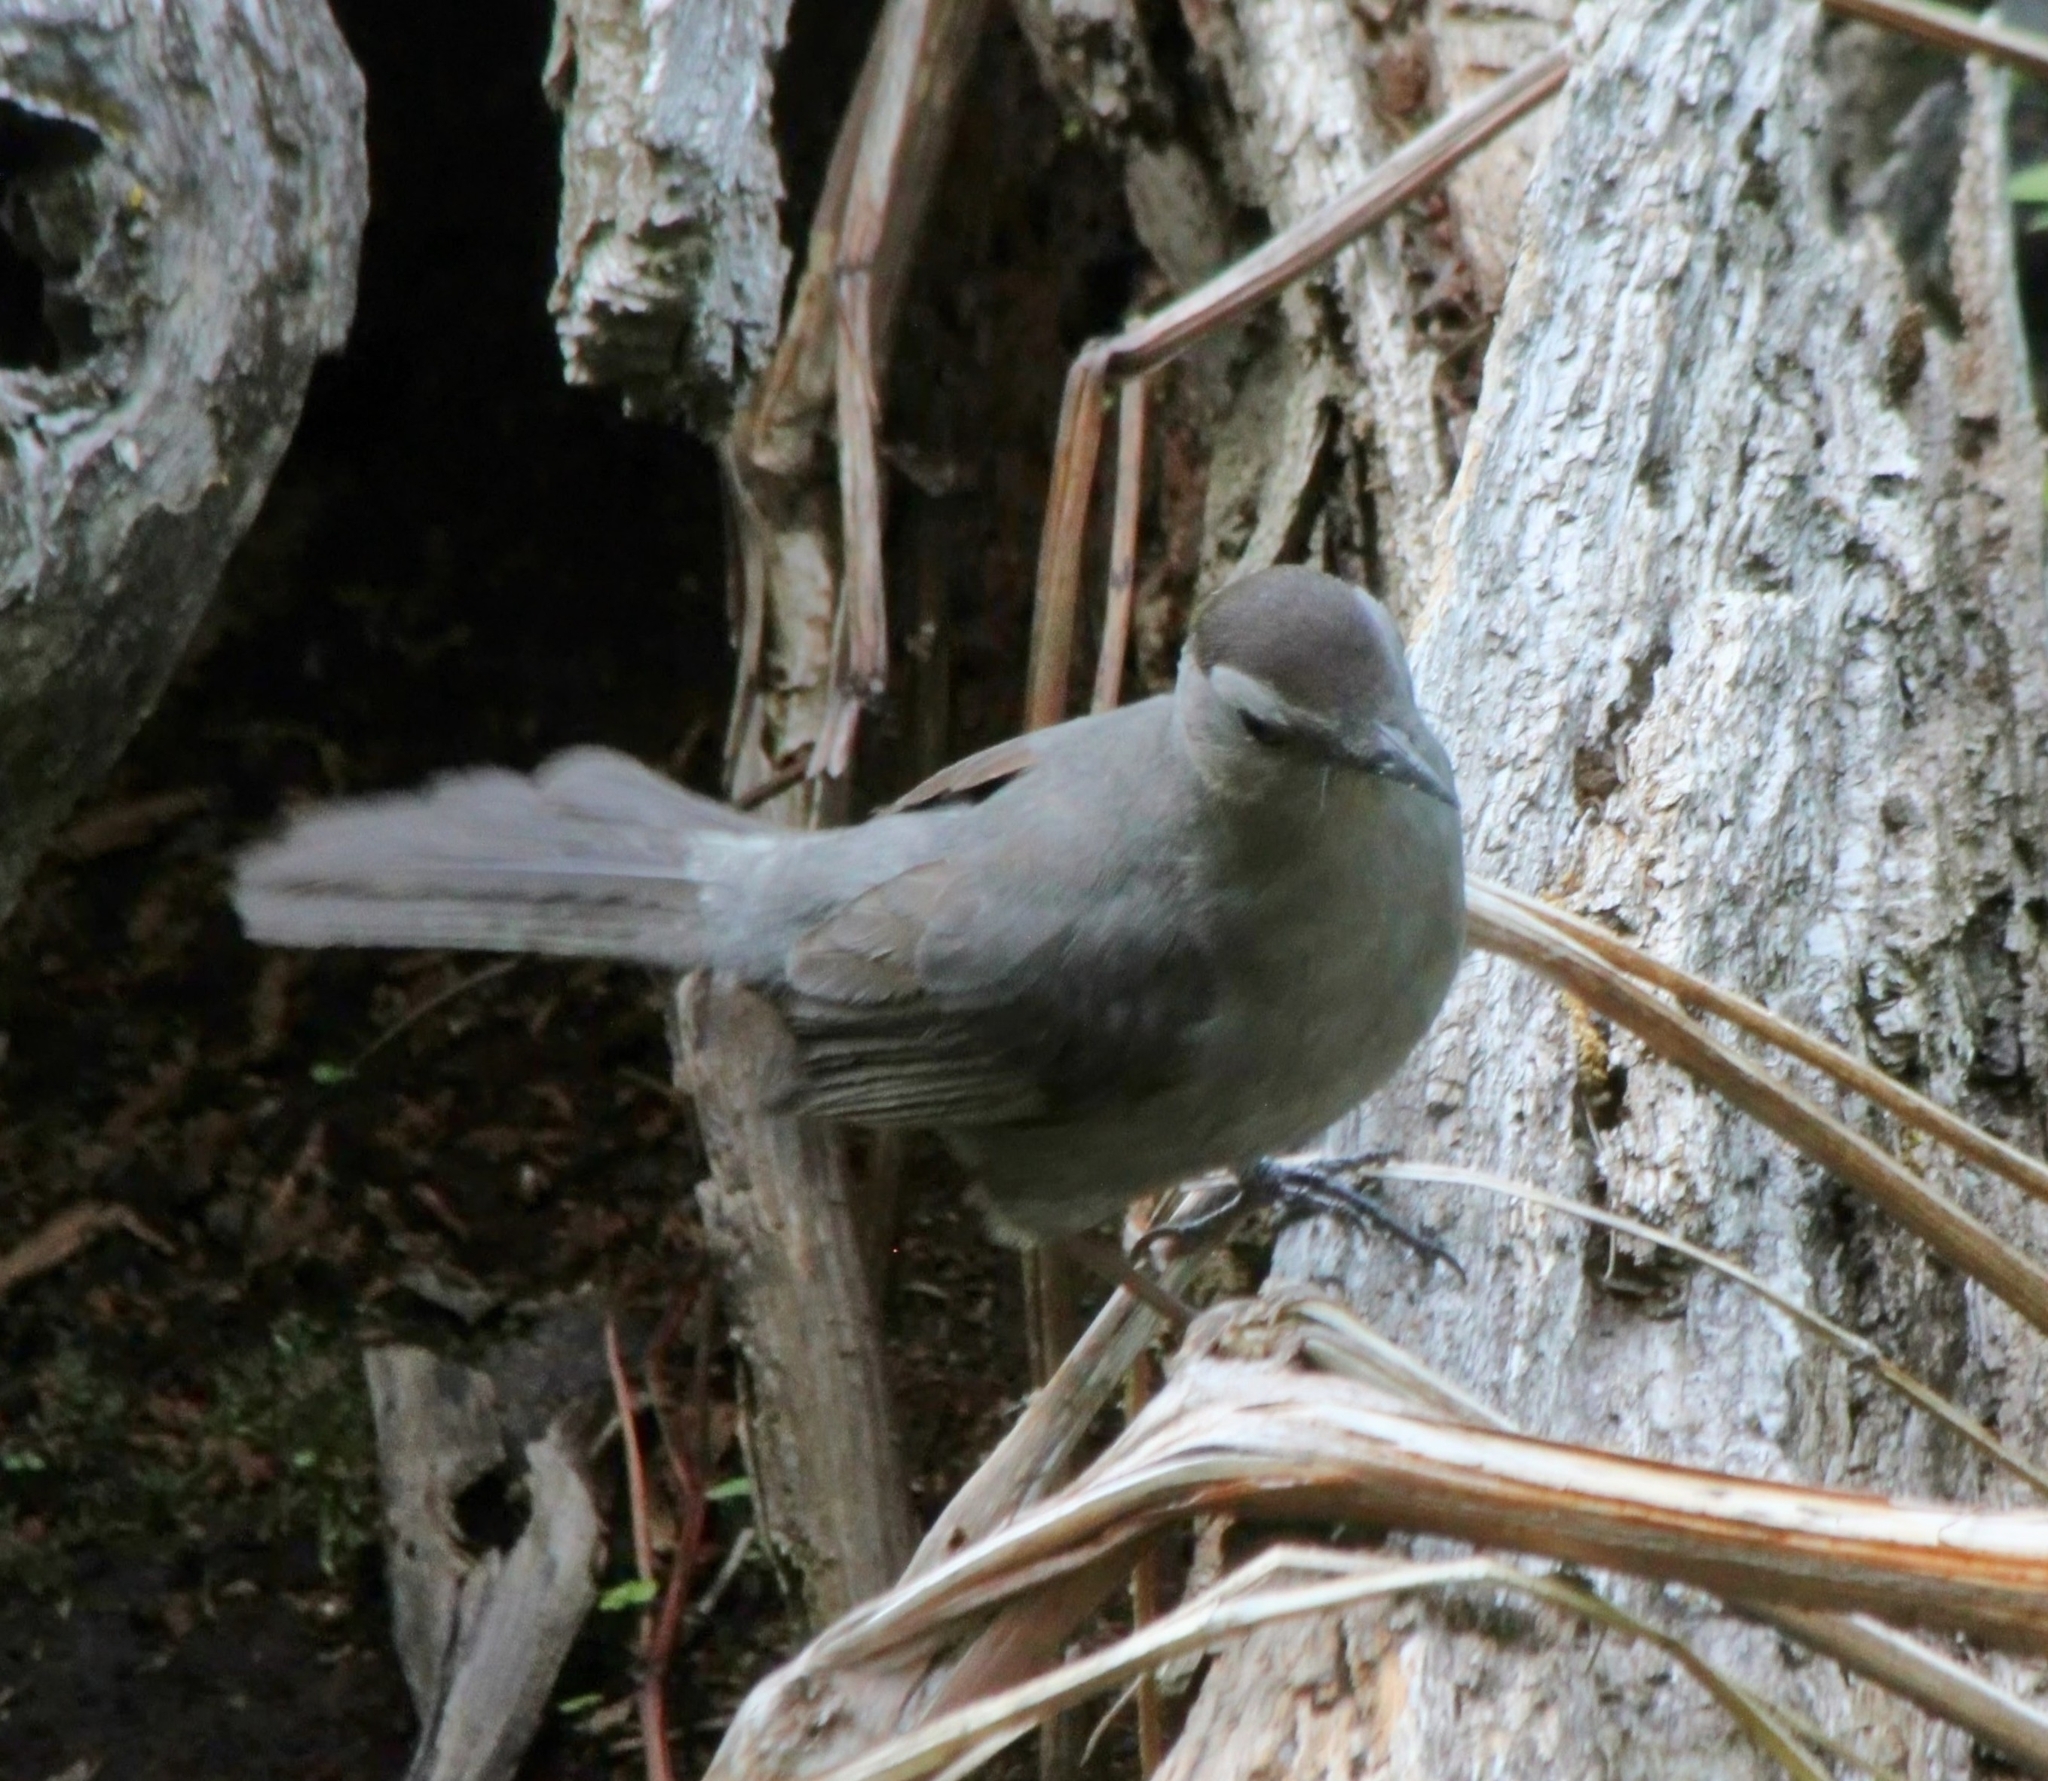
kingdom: Animalia
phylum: Chordata
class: Aves
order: Passeriformes
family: Mimidae
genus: Dumetella
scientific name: Dumetella carolinensis
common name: Gray catbird
